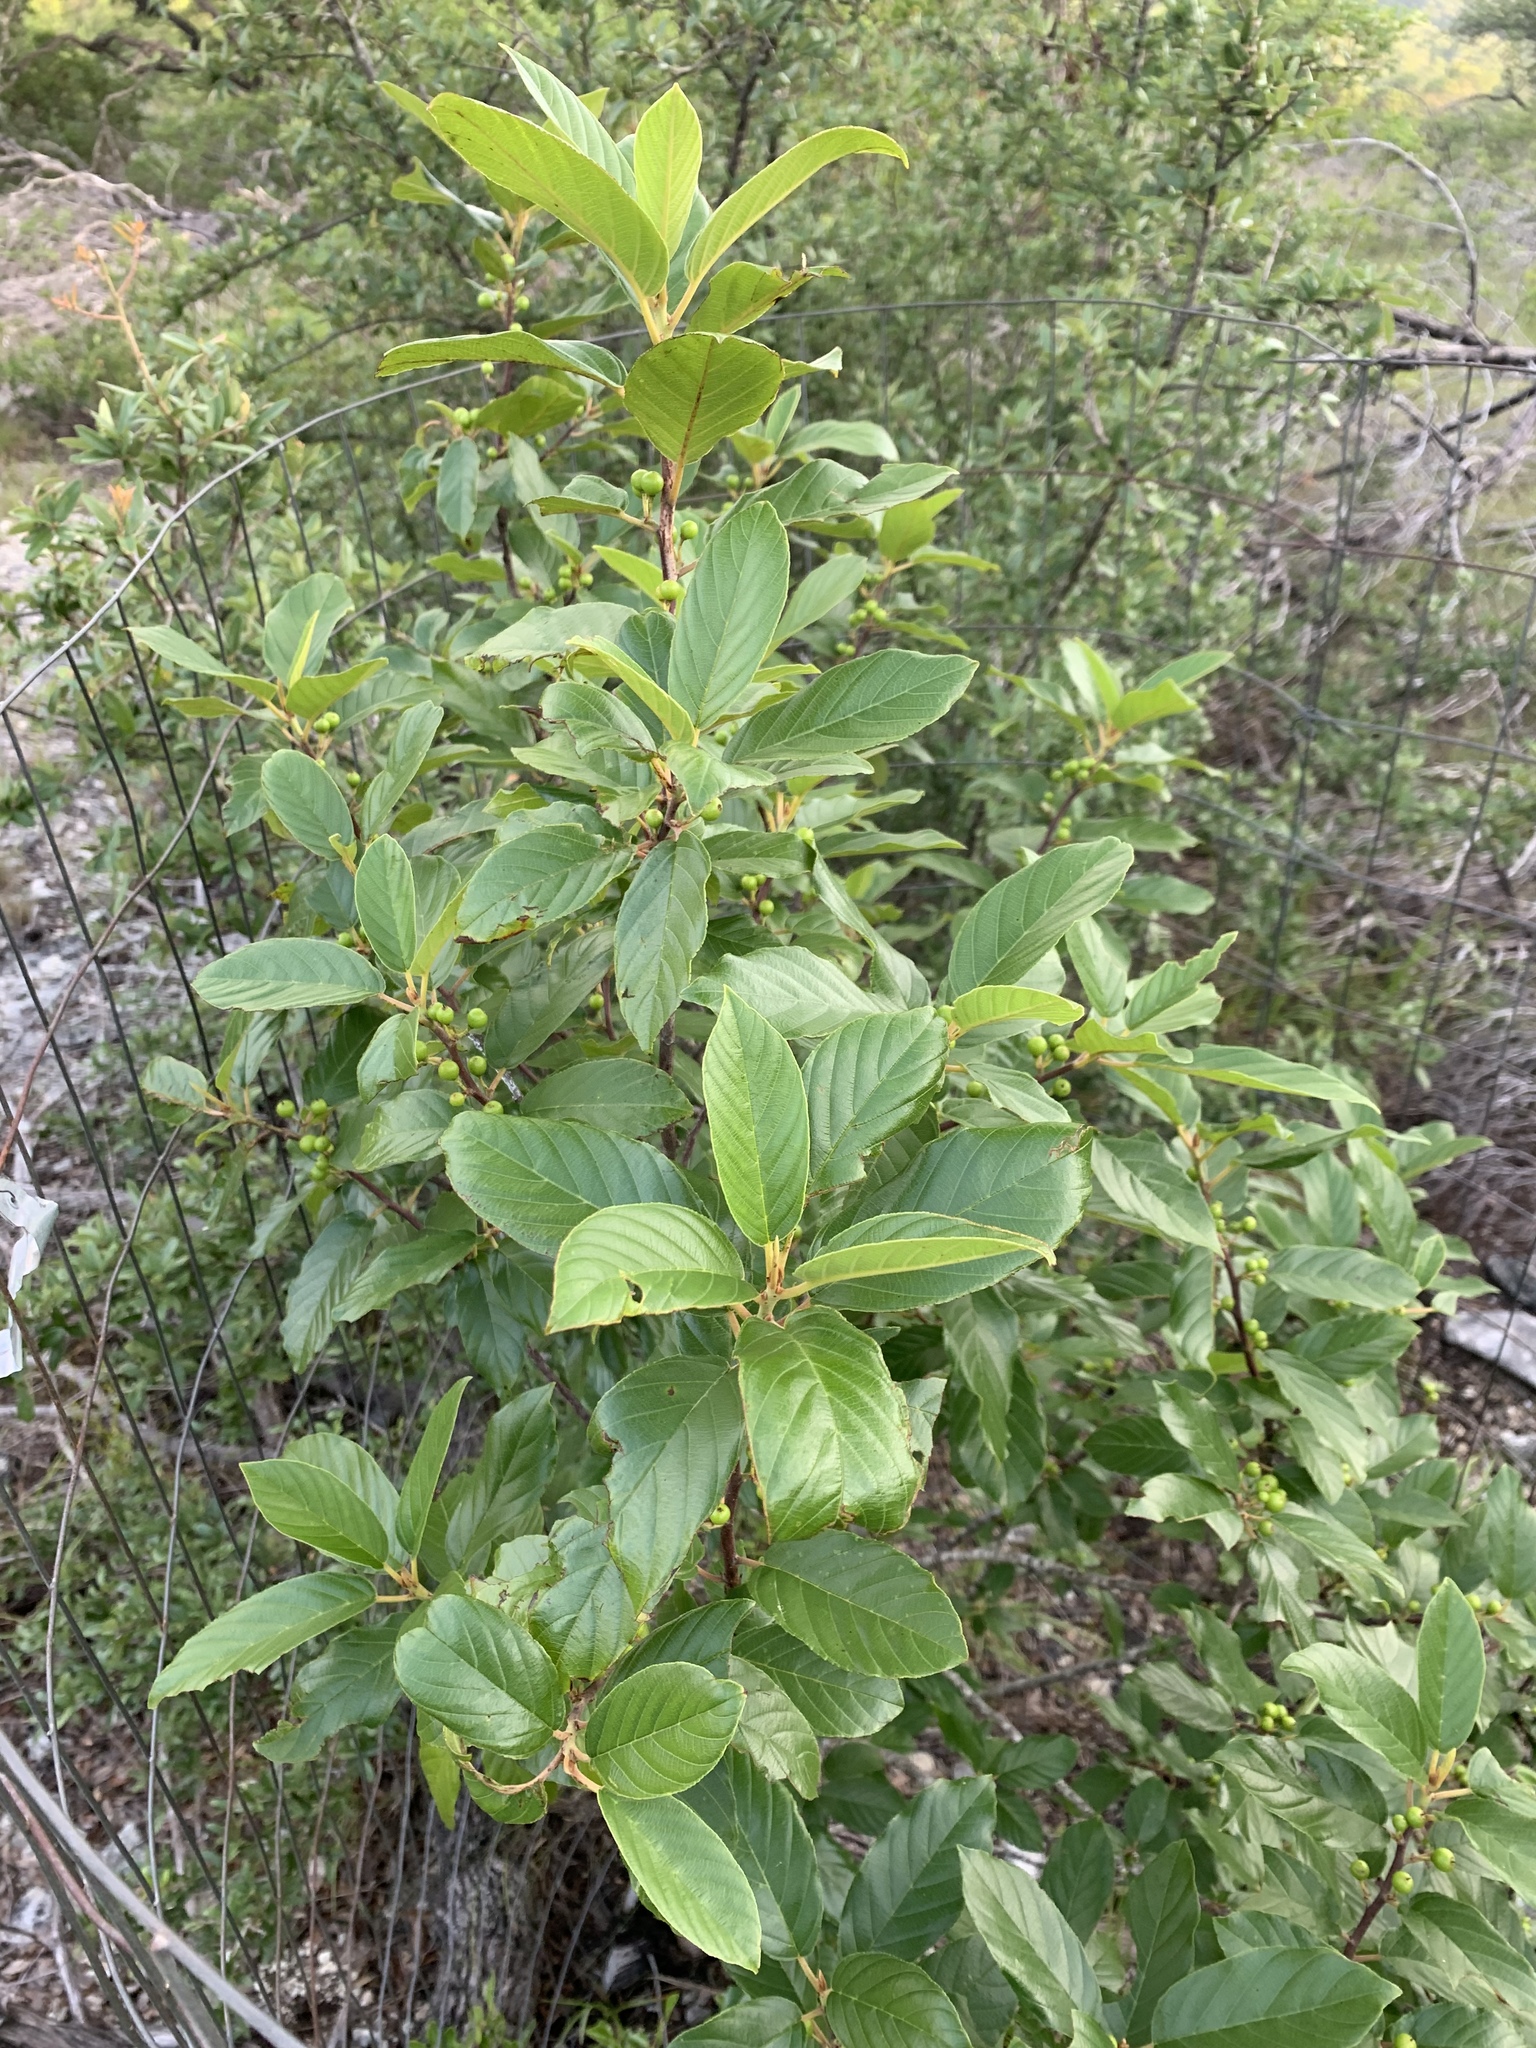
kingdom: Plantae
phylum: Tracheophyta
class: Magnoliopsida
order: Rosales
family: Rhamnaceae
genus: Frangula
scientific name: Frangula caroliniana
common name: Carolina buckthorn
